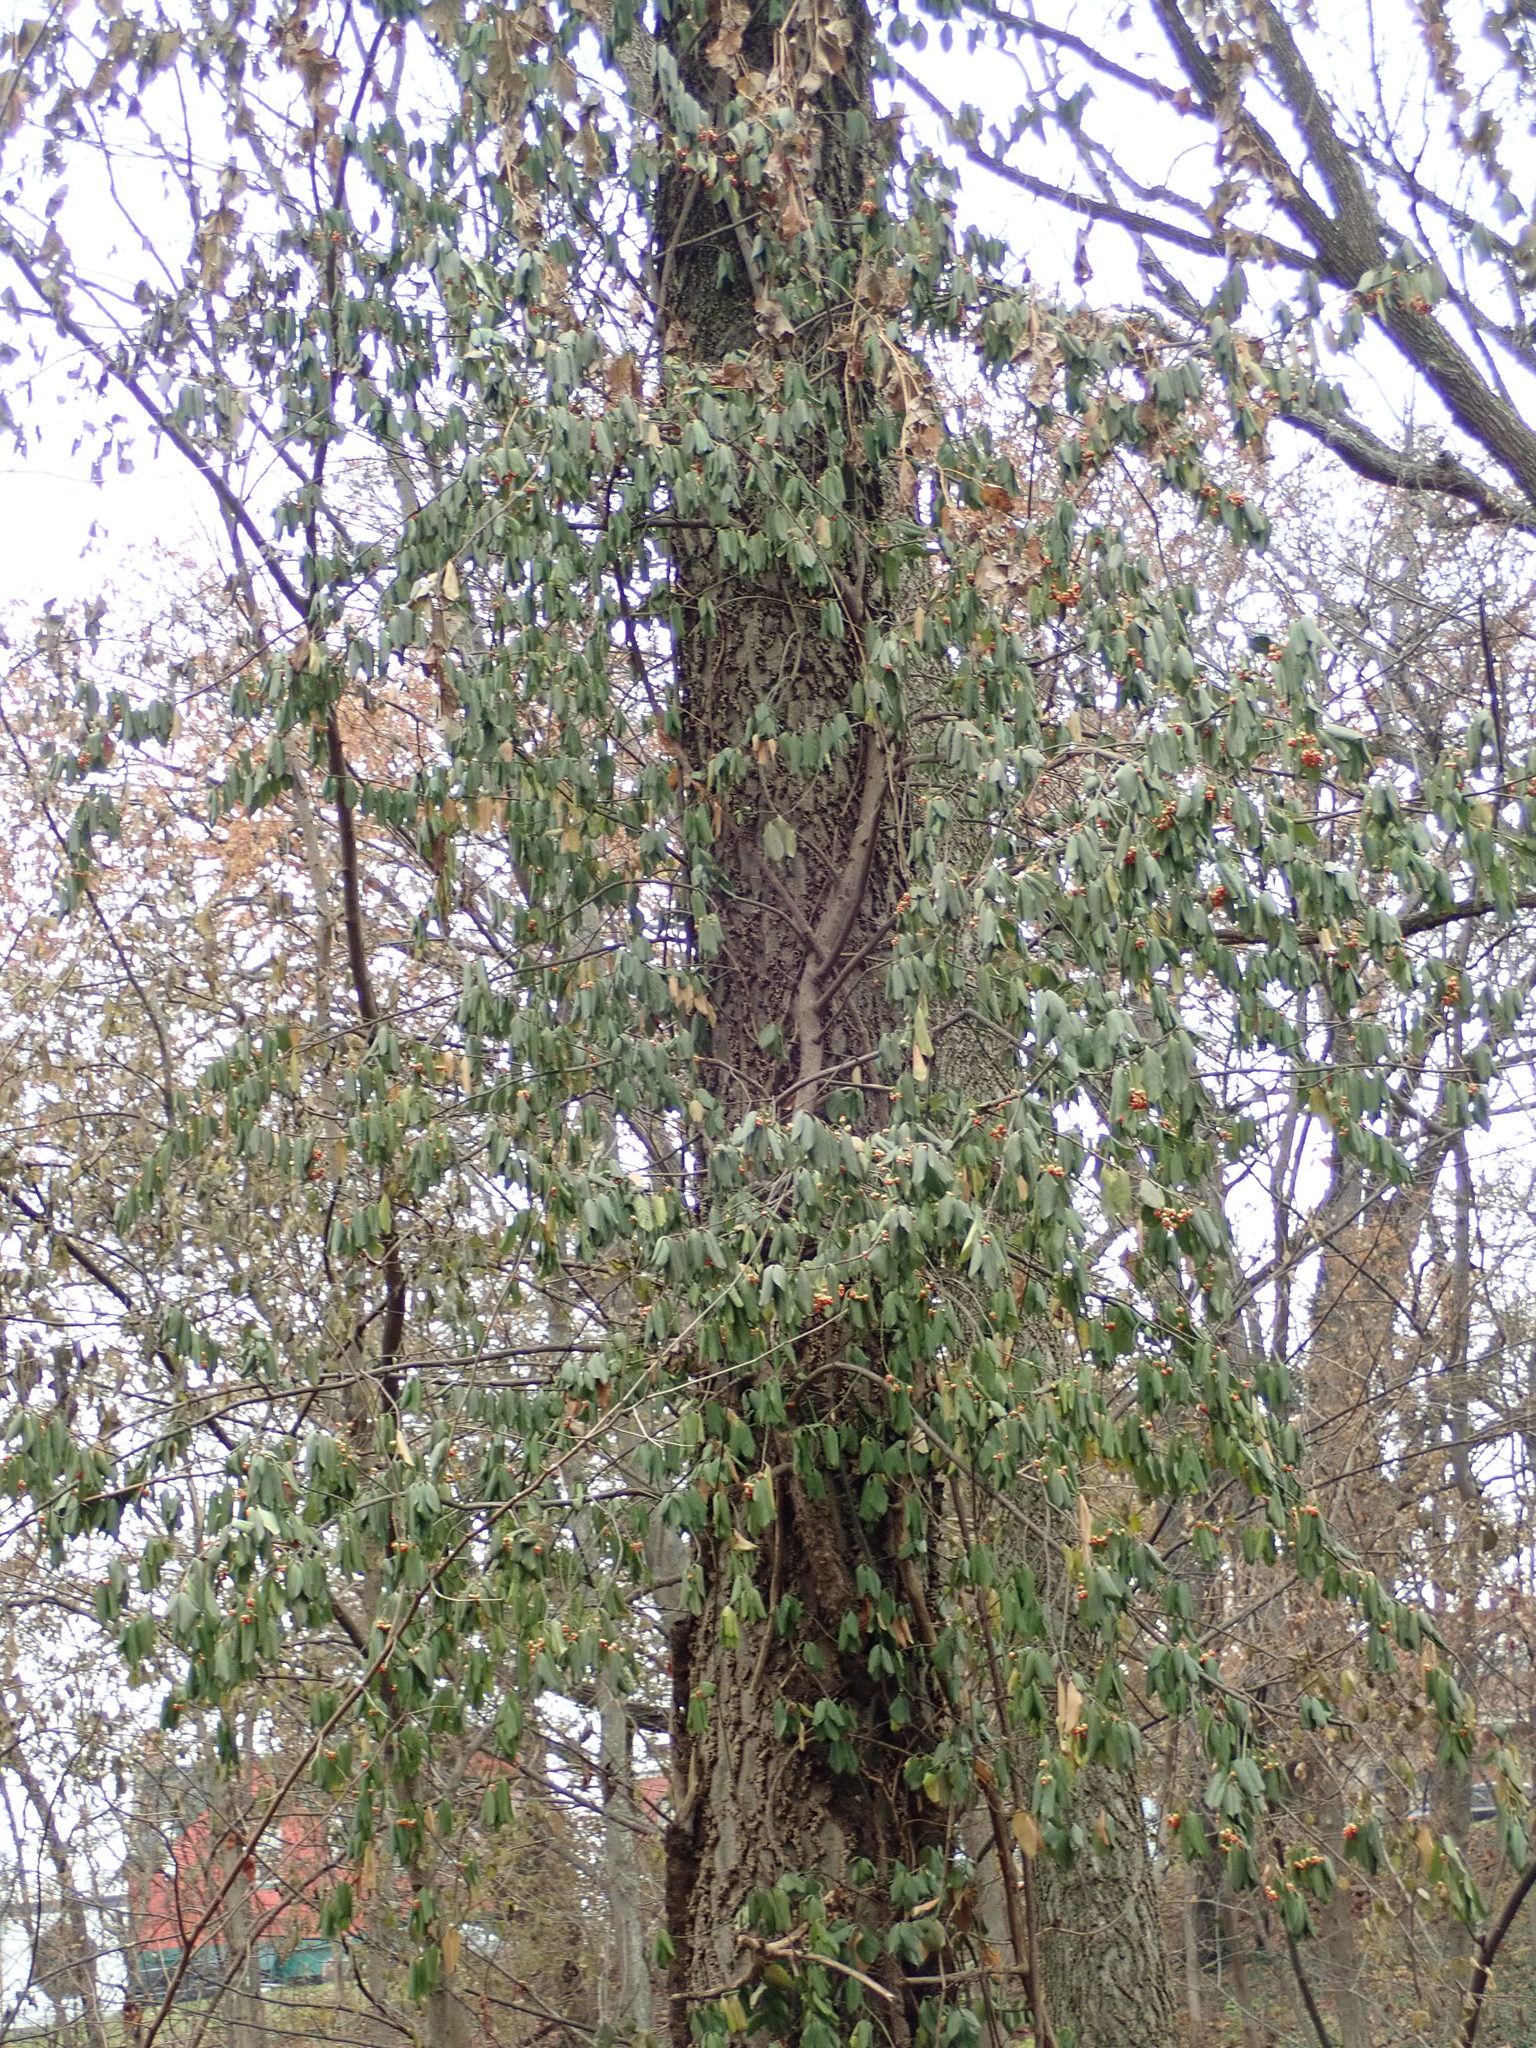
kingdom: Plantae
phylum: Tracheophyta
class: Magnoliopsida
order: Celastrales
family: Celastraceae
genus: Euonymus
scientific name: Euonymus fortunei
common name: Climbing euonymus
